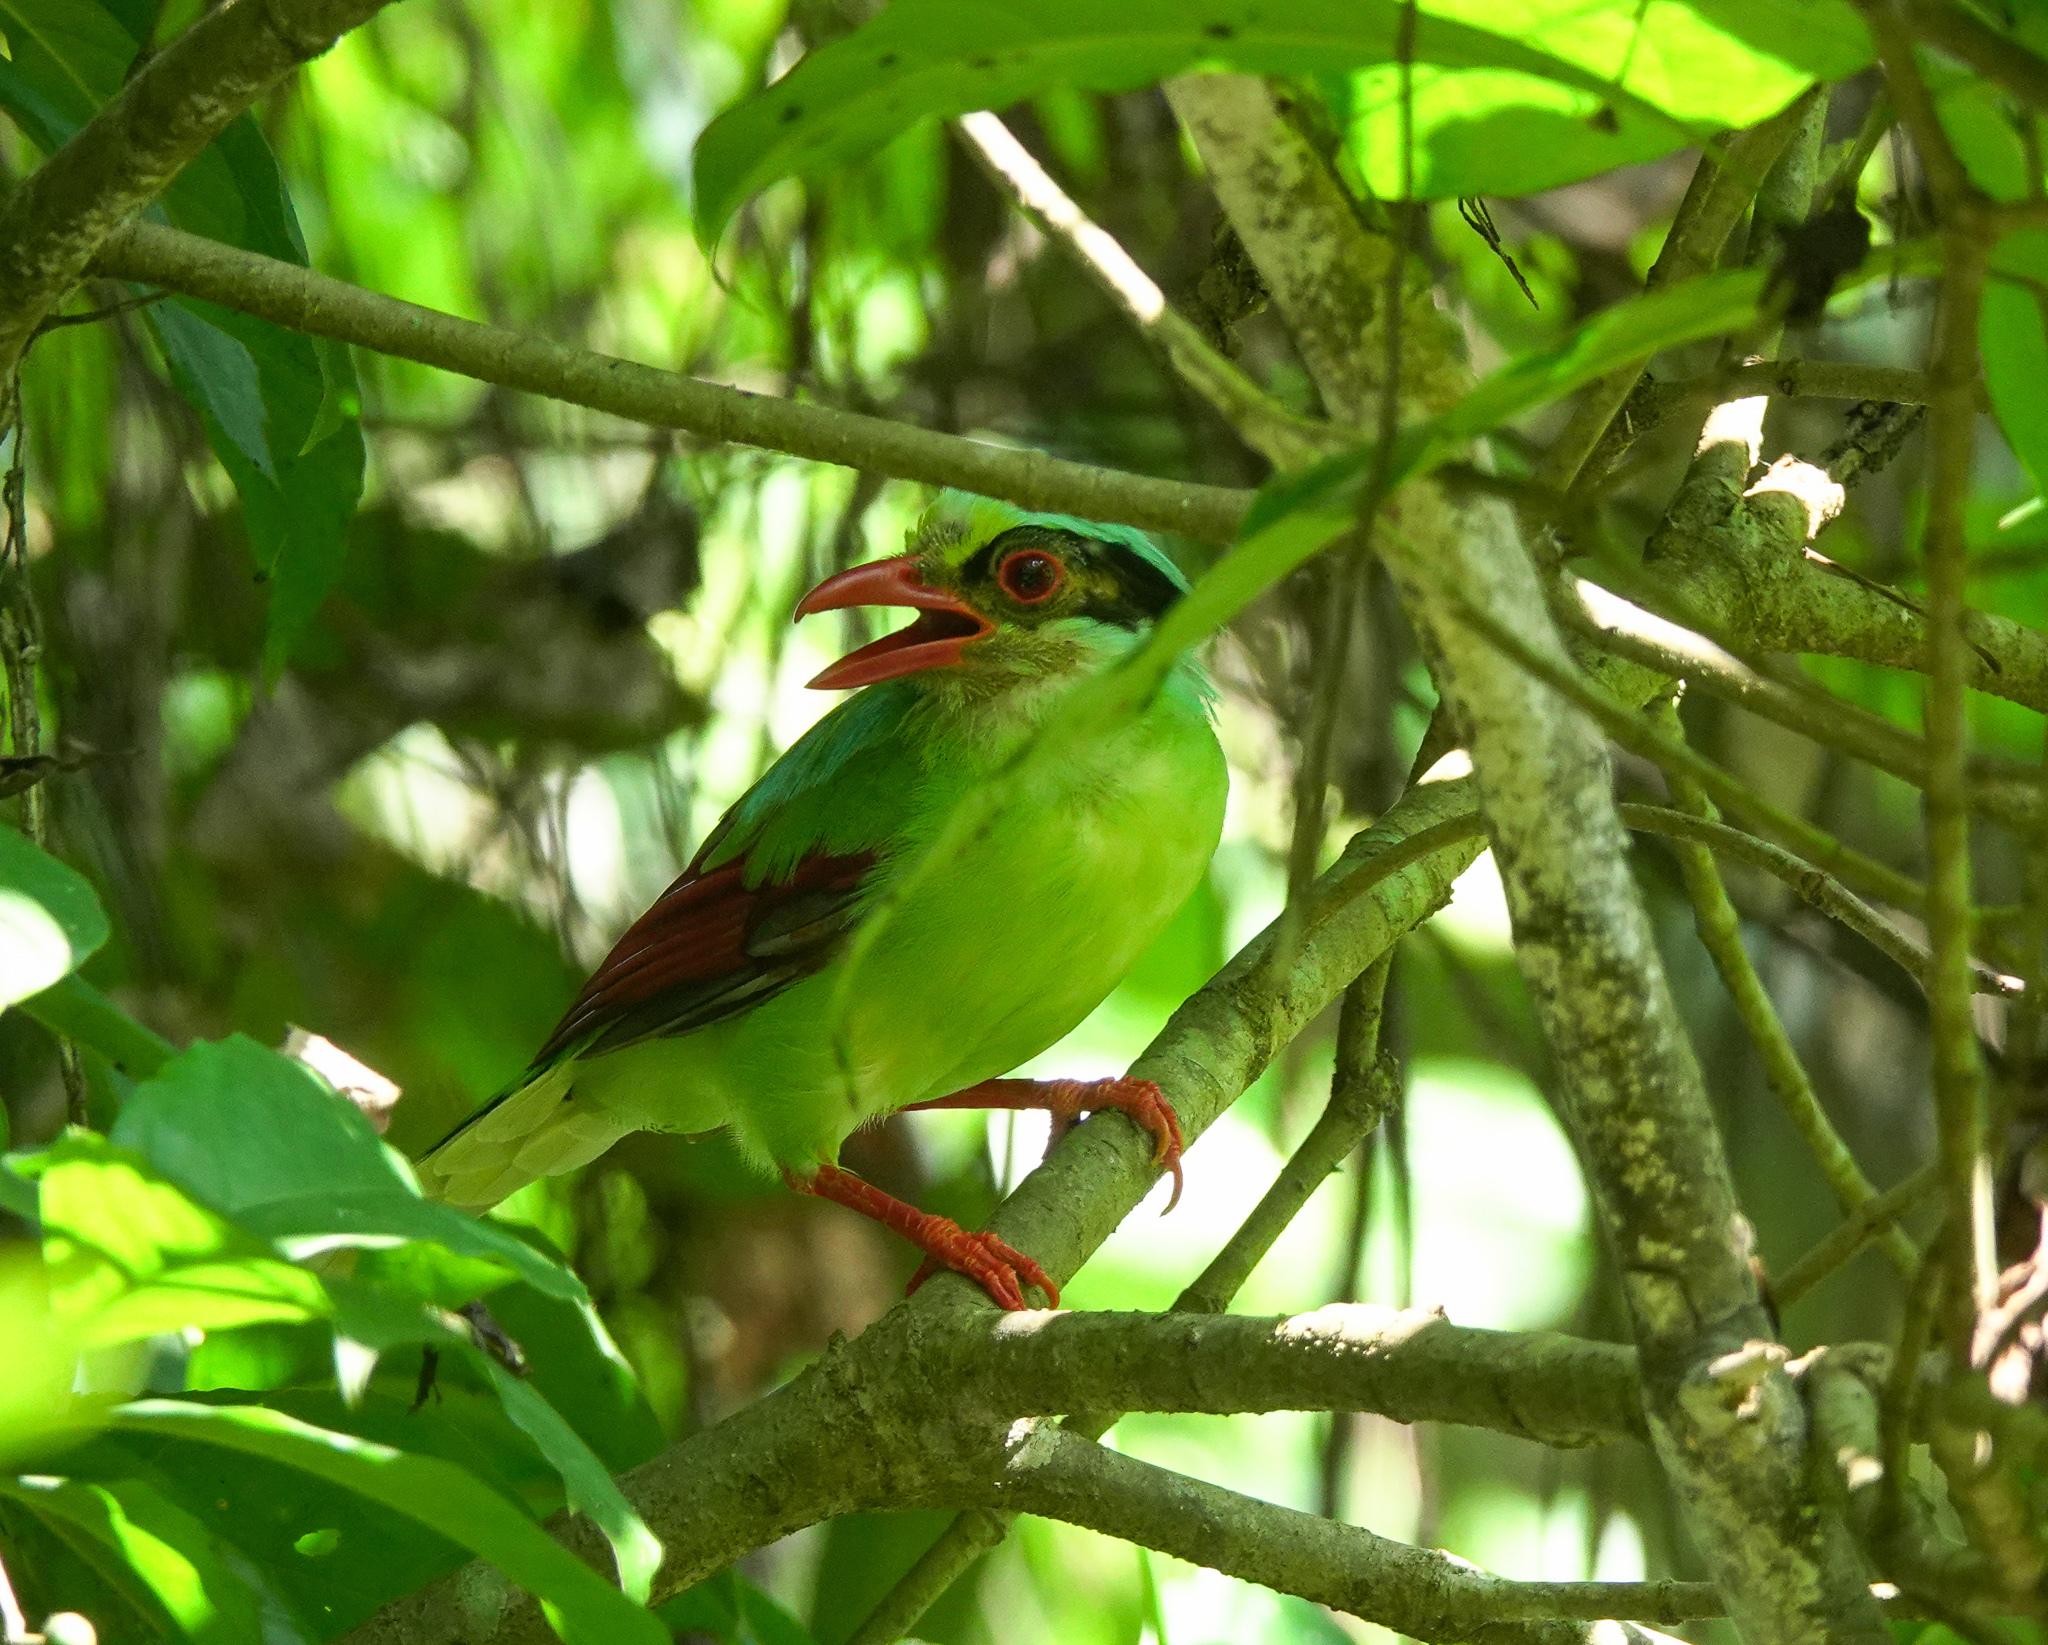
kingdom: Animalia
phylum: Chordata
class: Aves
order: Passeriformes
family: Corvidae
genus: Cissa
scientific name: Cissa chinensis
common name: Common green magpie
